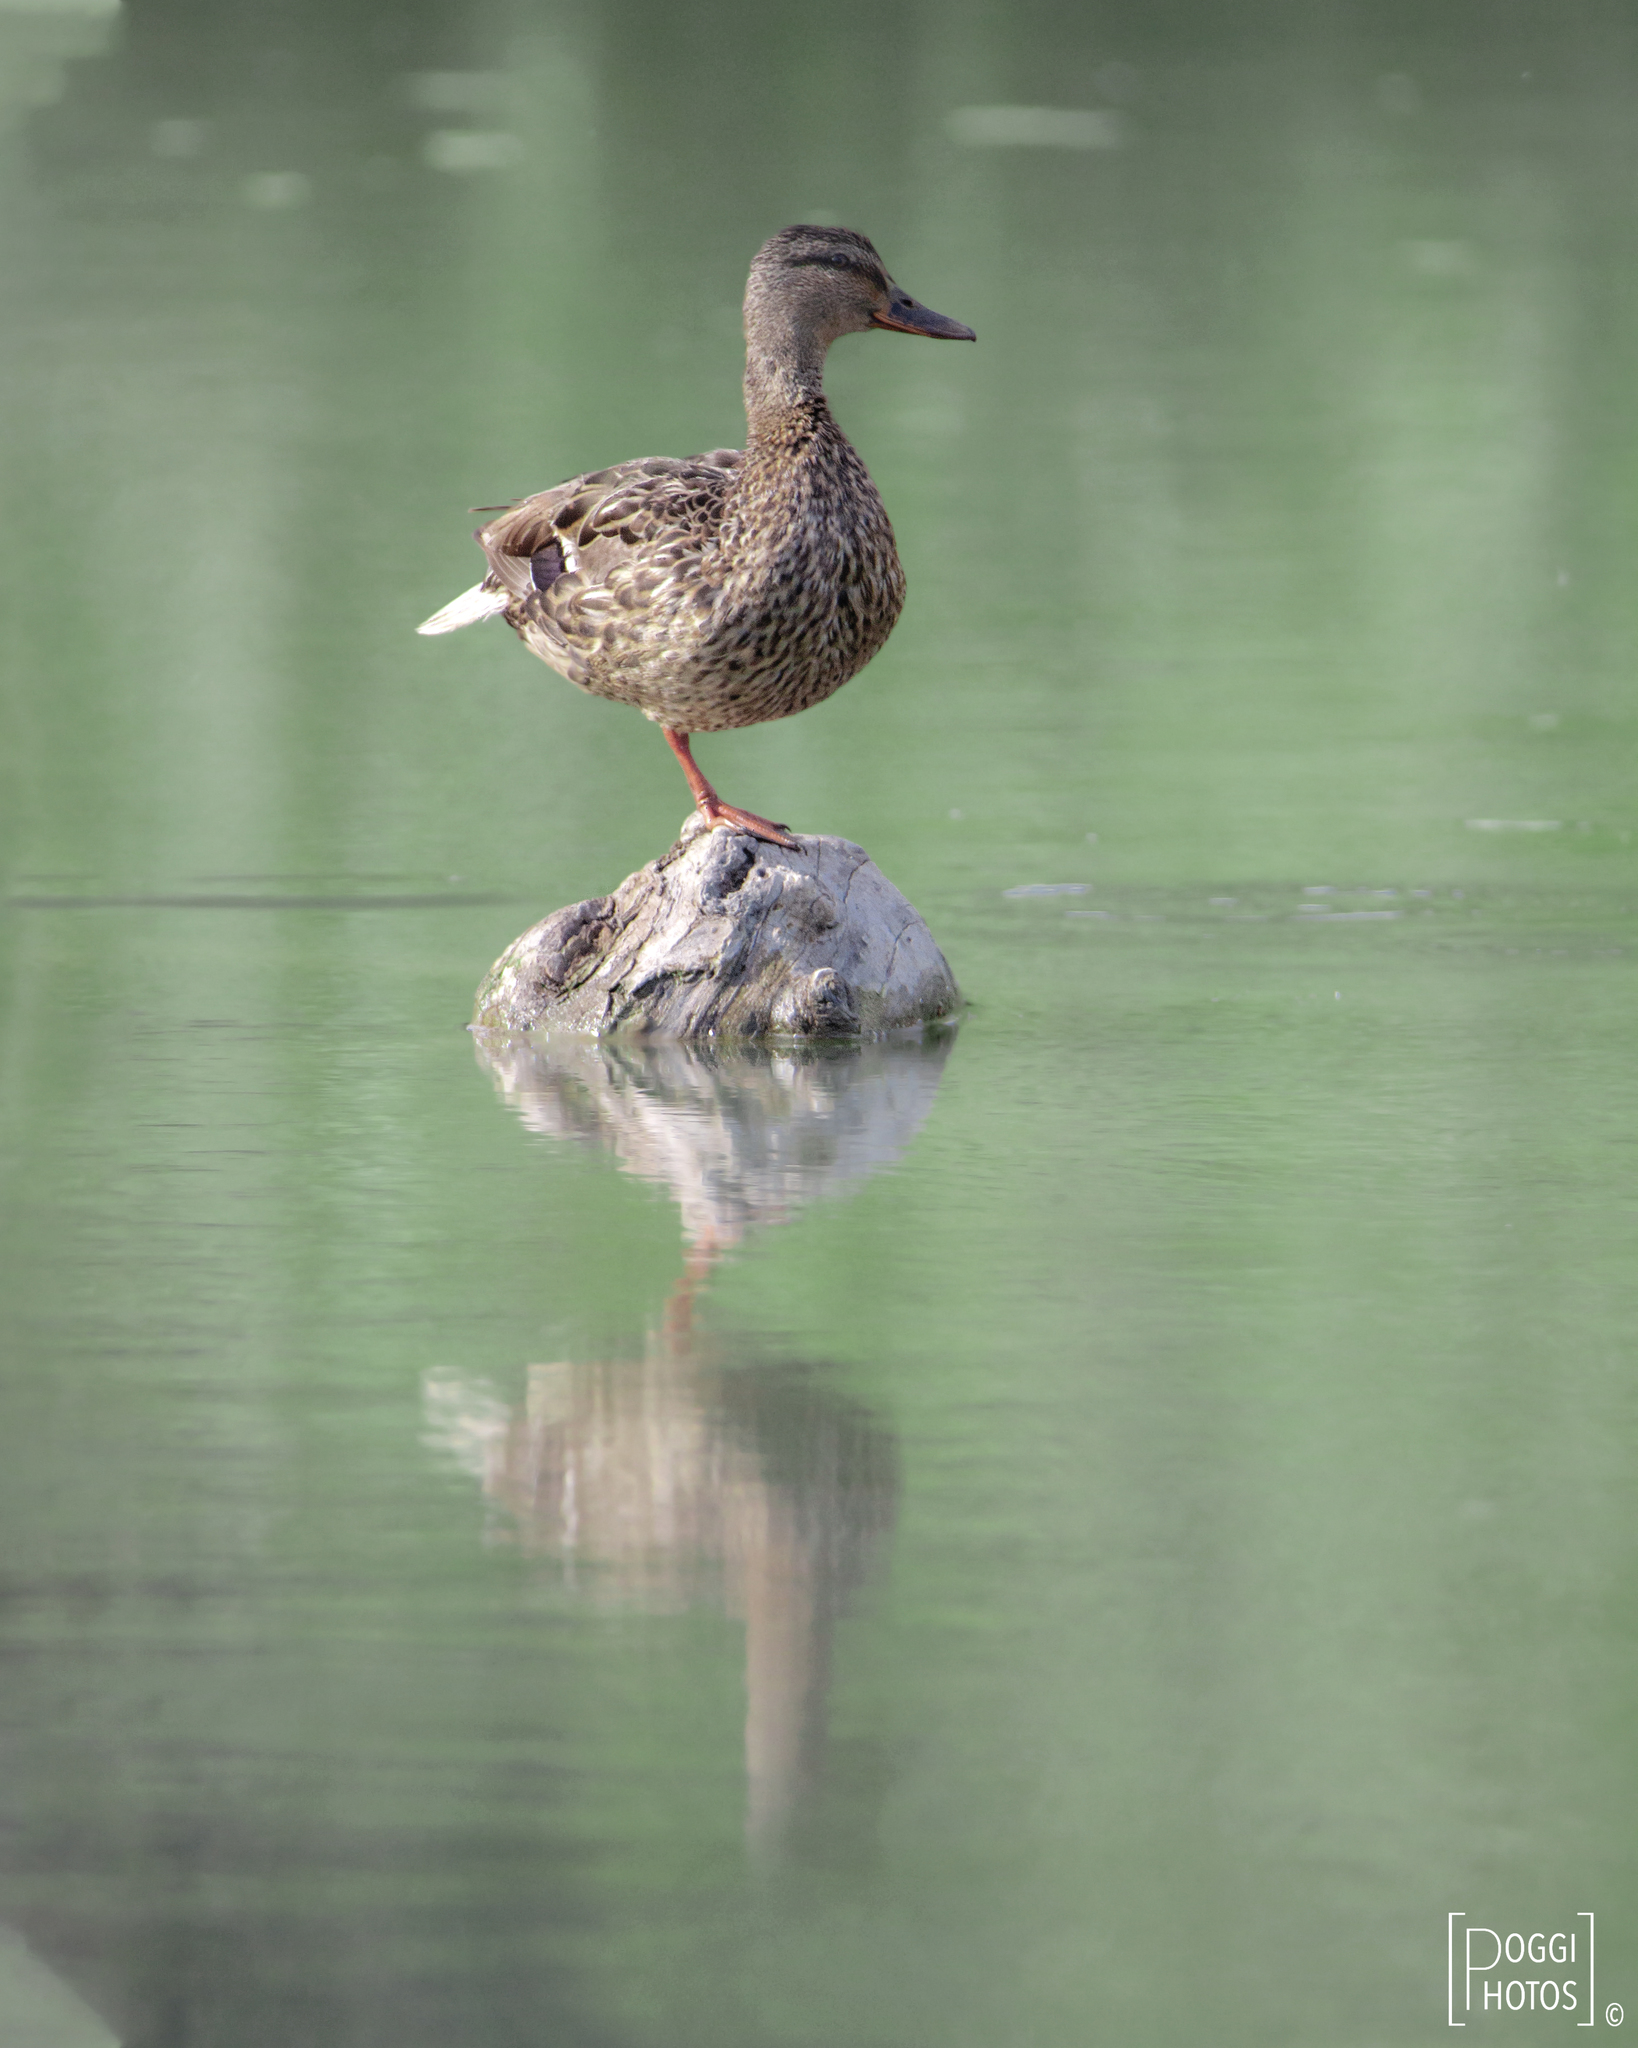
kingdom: Animalia
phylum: Chordata
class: Aves
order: Anseriformes
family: Anatidae
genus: Anas
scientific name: Anas platyrhynchos
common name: Mallard
